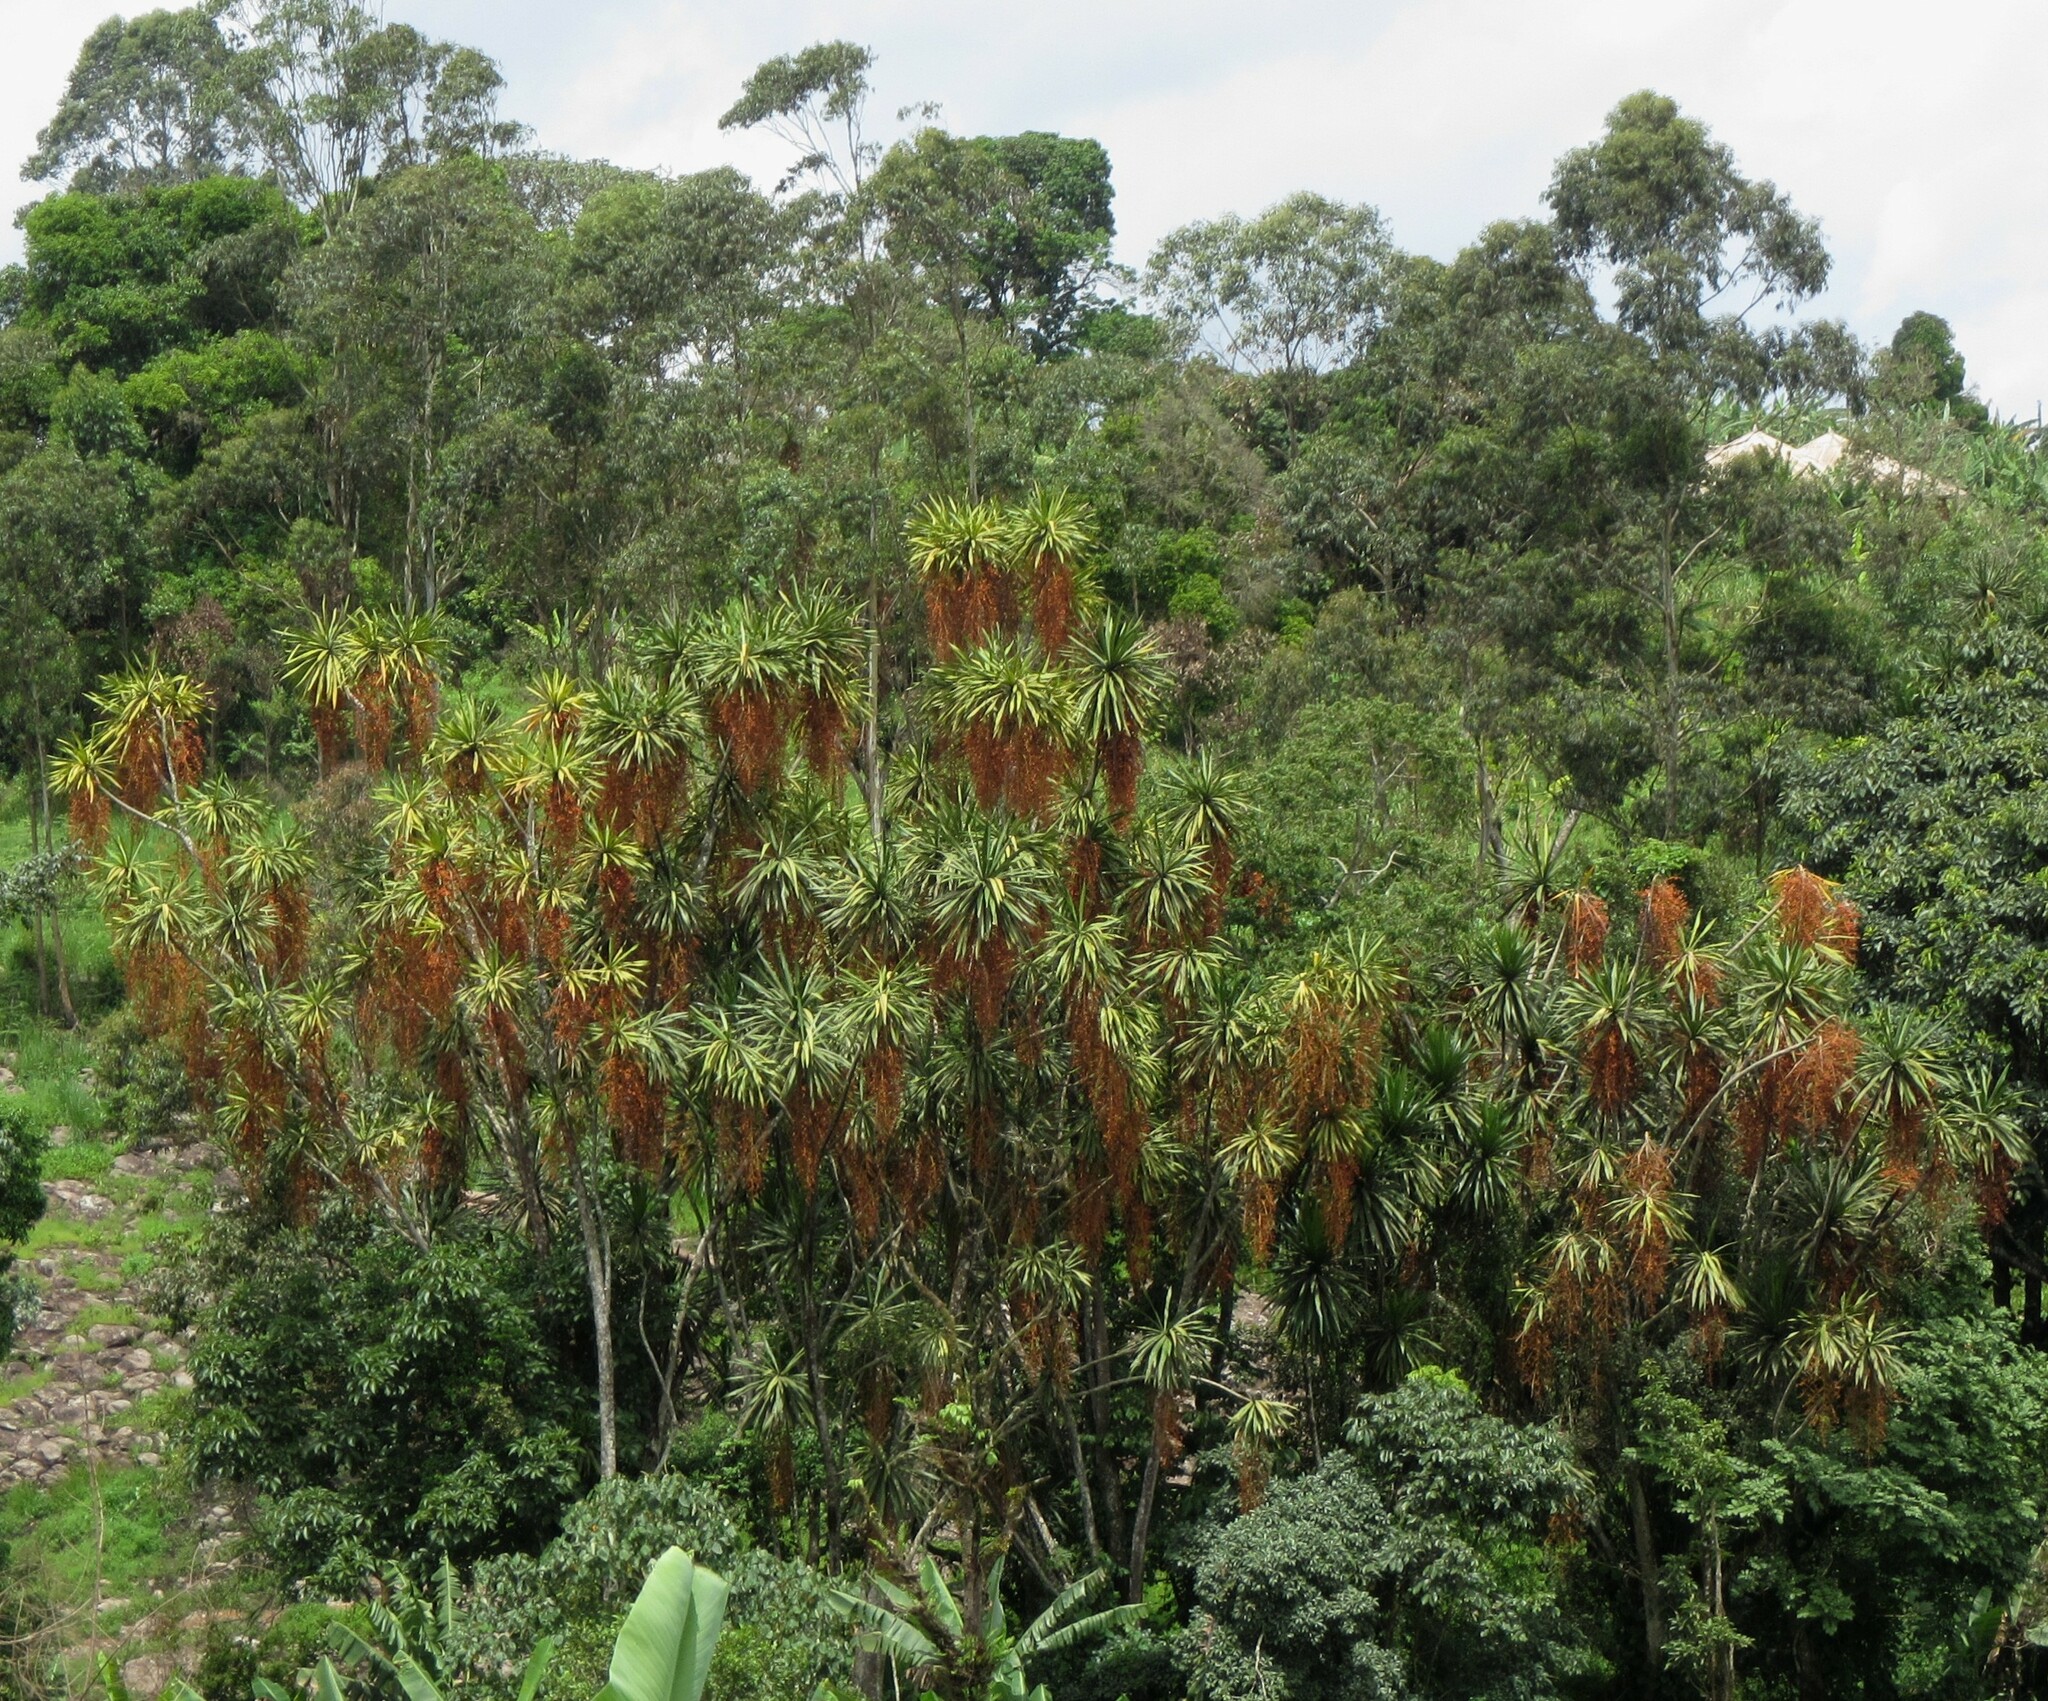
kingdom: Plantae
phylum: Tracheophyta
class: Liliopsida
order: Asparagales
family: Asparagaceae
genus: Dracaena
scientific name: Dracaena arborea
